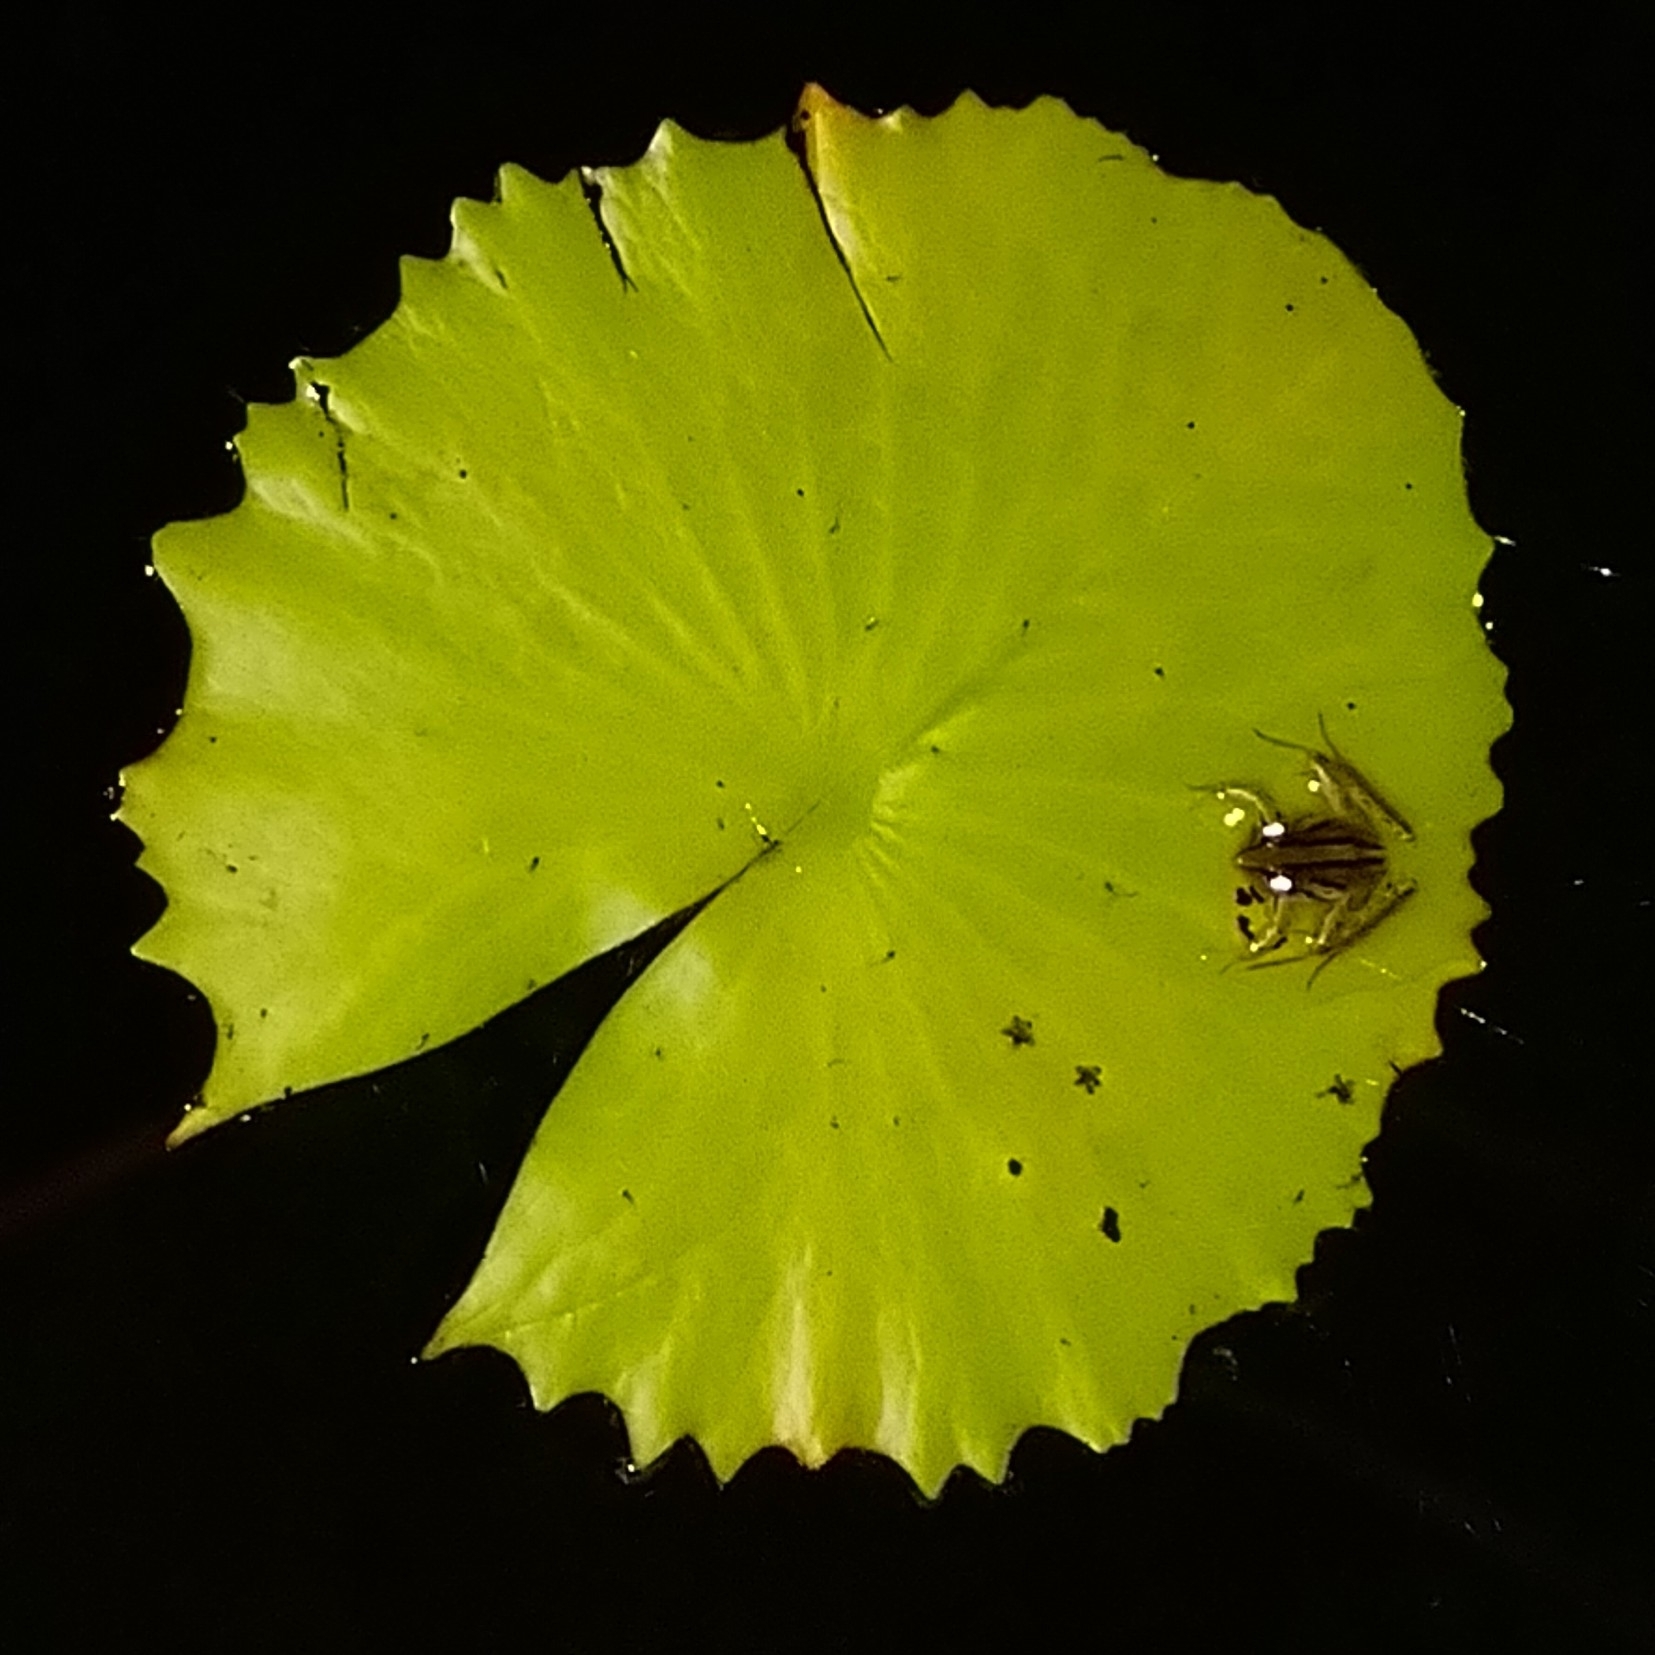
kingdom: Animalia
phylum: Chordata
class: Amphibia
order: Anura
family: Pyxicephalidae
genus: Strongylopus
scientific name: Strongylopus fasciatus
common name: Striped stream frog
